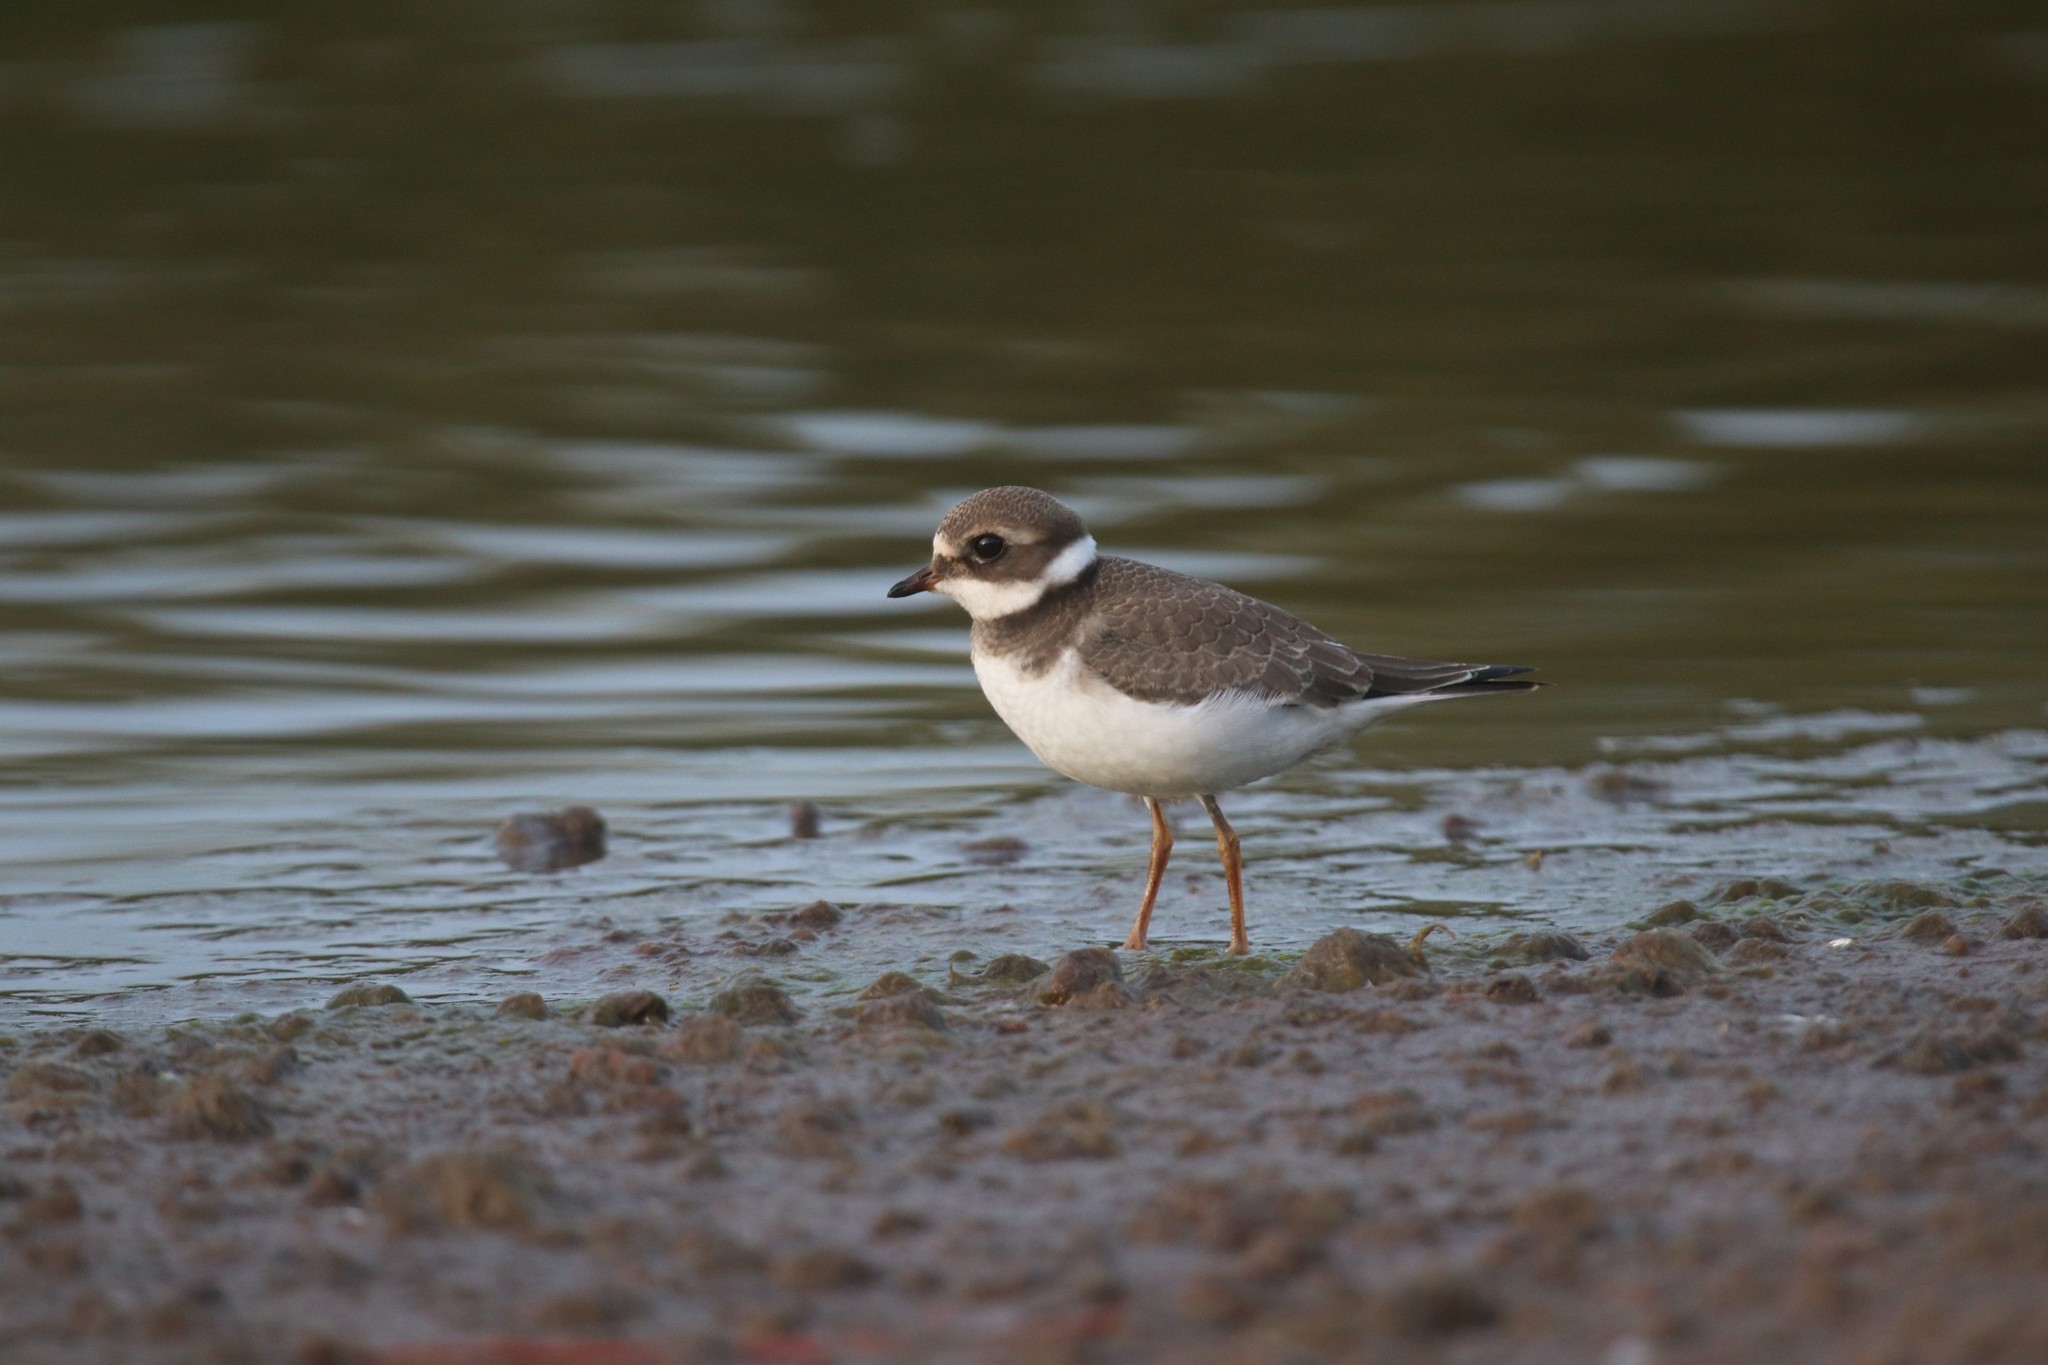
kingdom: Animalia
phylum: Chordata
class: Aves
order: Charadriiformes
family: Charadriidae
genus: Charadrius
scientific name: Charadrius hiaticula
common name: Common ringed plover
